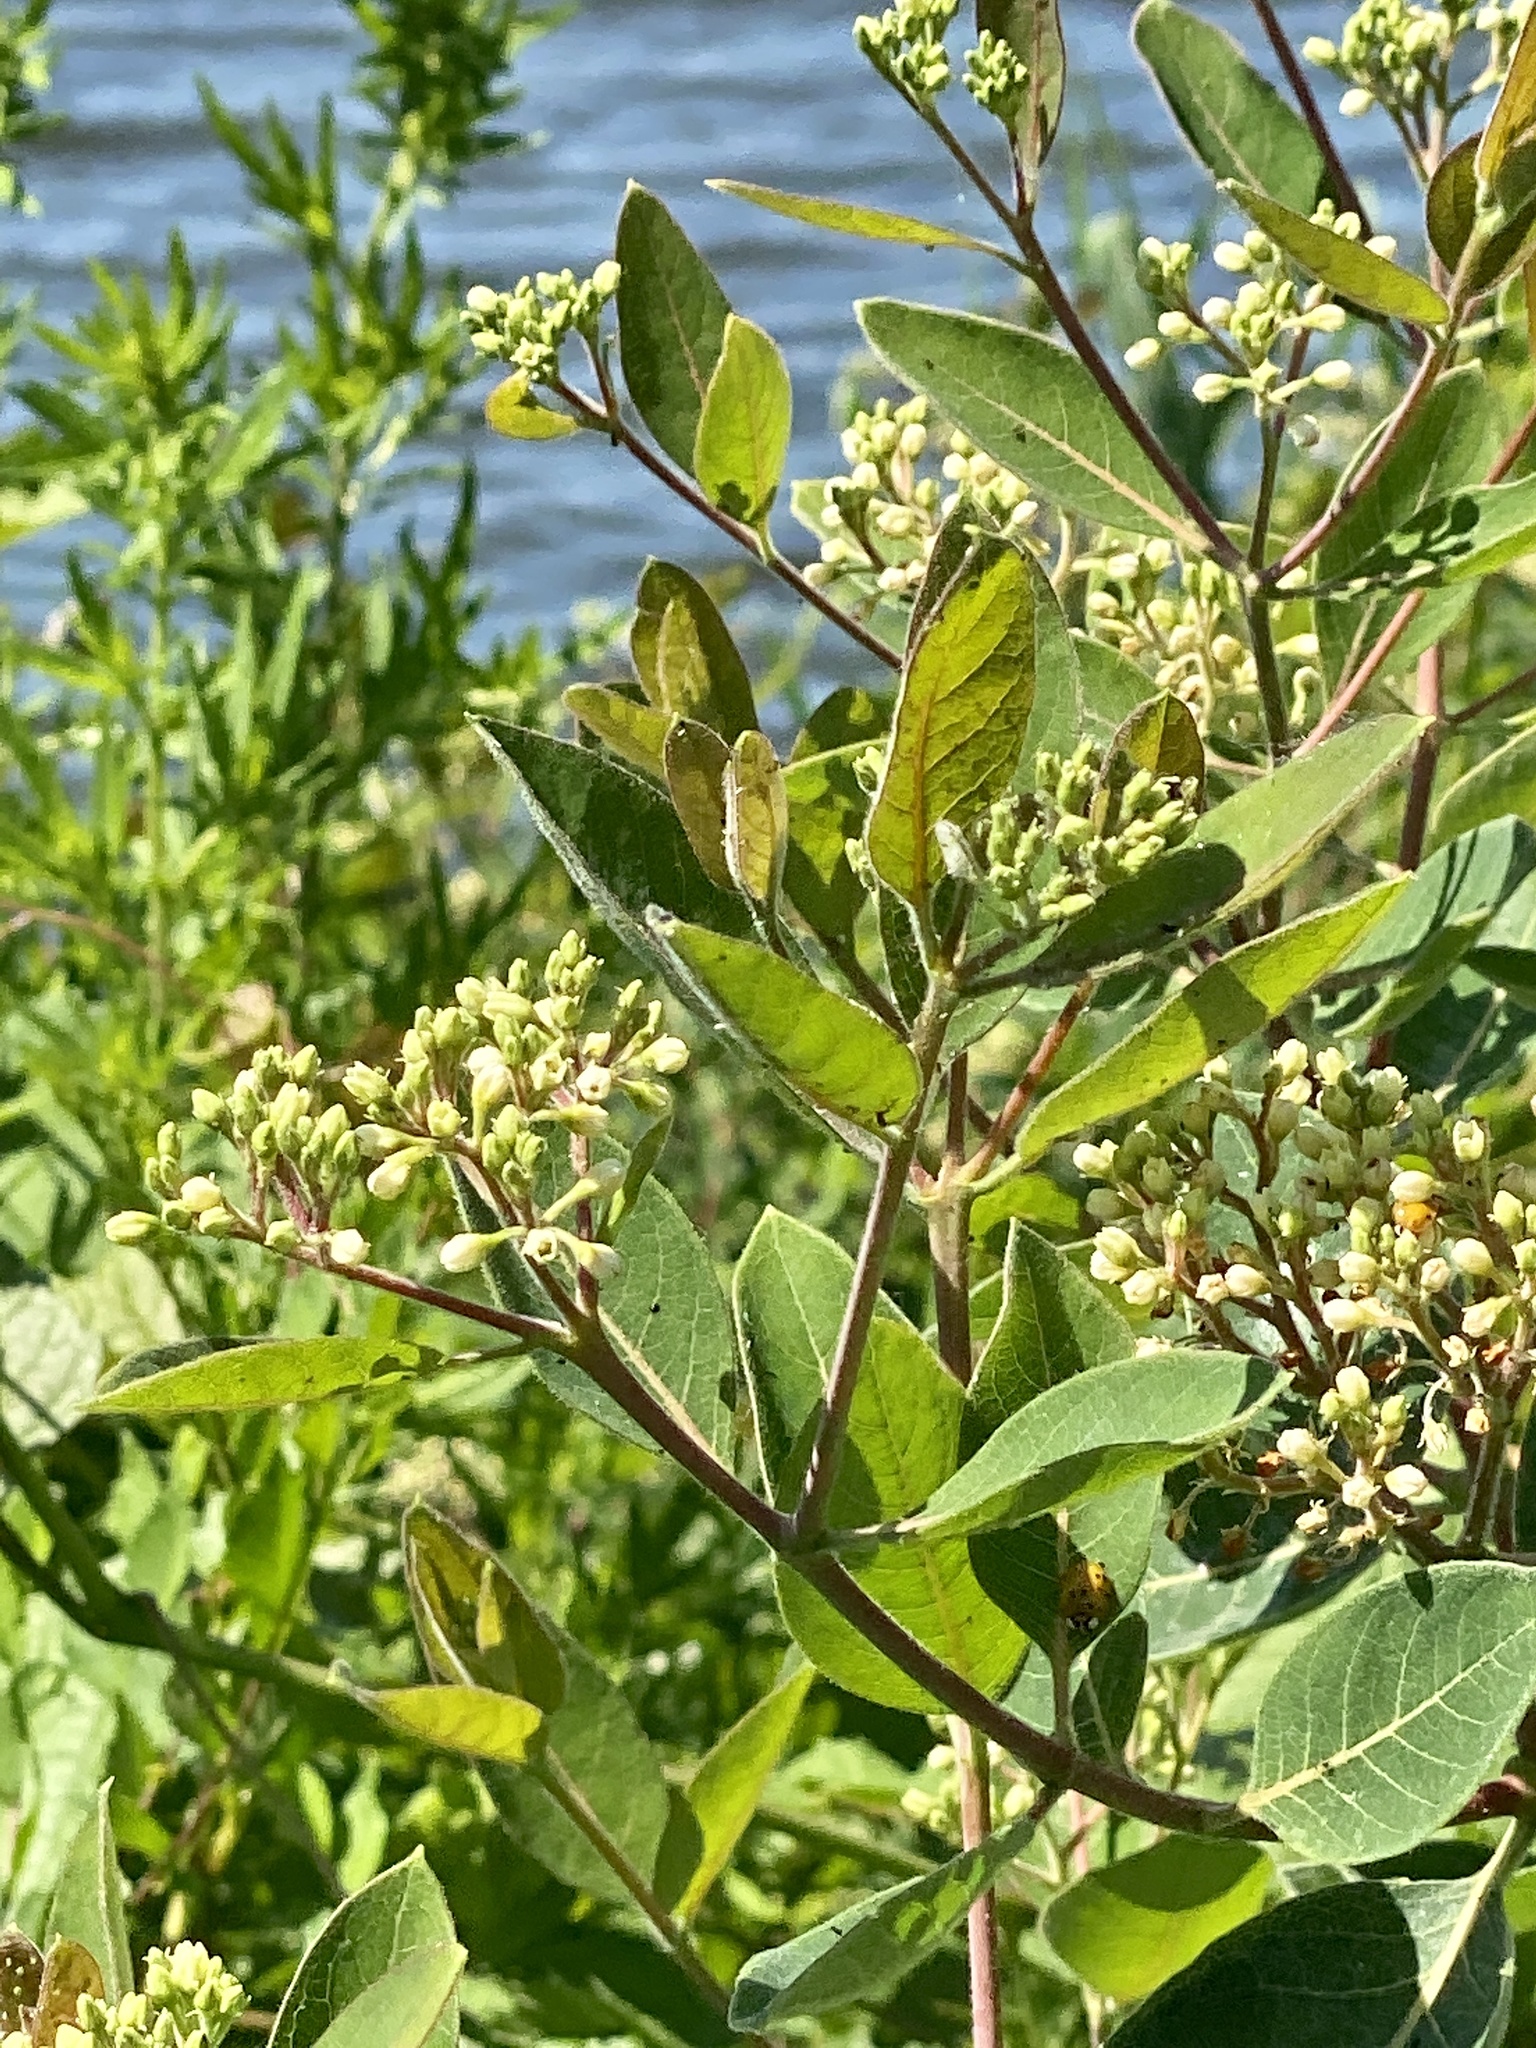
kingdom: Plantae
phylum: Tracheophyta
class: Magnoliopsida
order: Gentianales
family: Apocynaceae
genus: Apocynum
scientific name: Apocynum cannabinum
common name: Hemp dogbane
